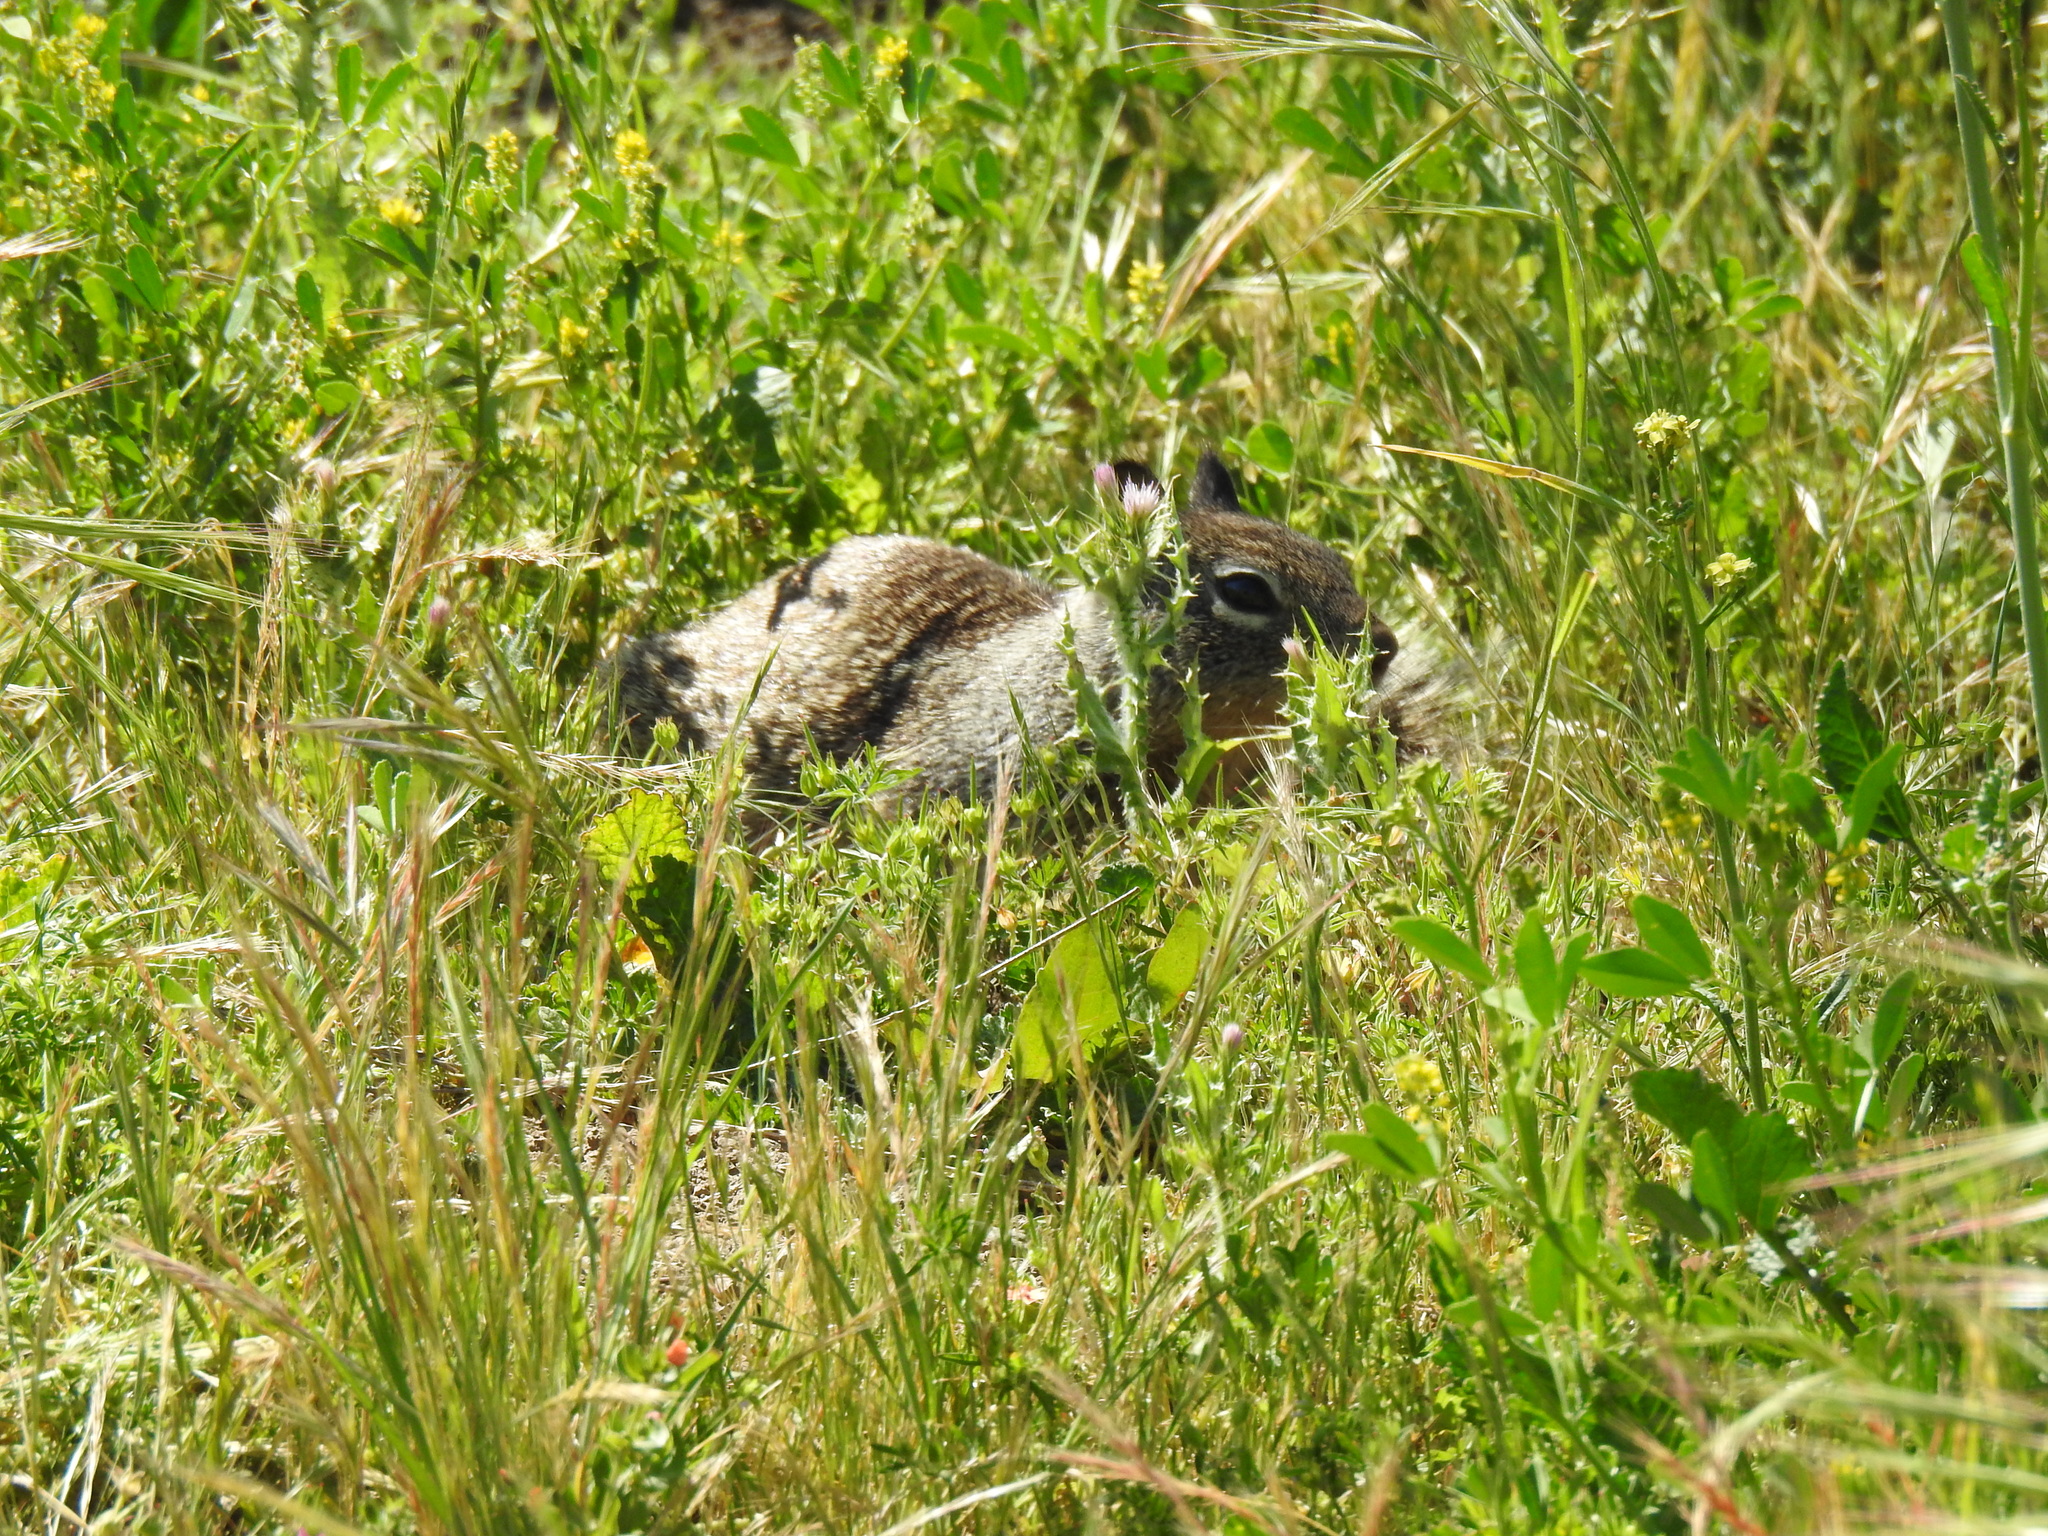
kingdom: Animalia
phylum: Chordata
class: Mammalia
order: Rodentia
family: Sciuridae
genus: Otospermophilus
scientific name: Otospermophilus beecheyi
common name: California ground squirrel
